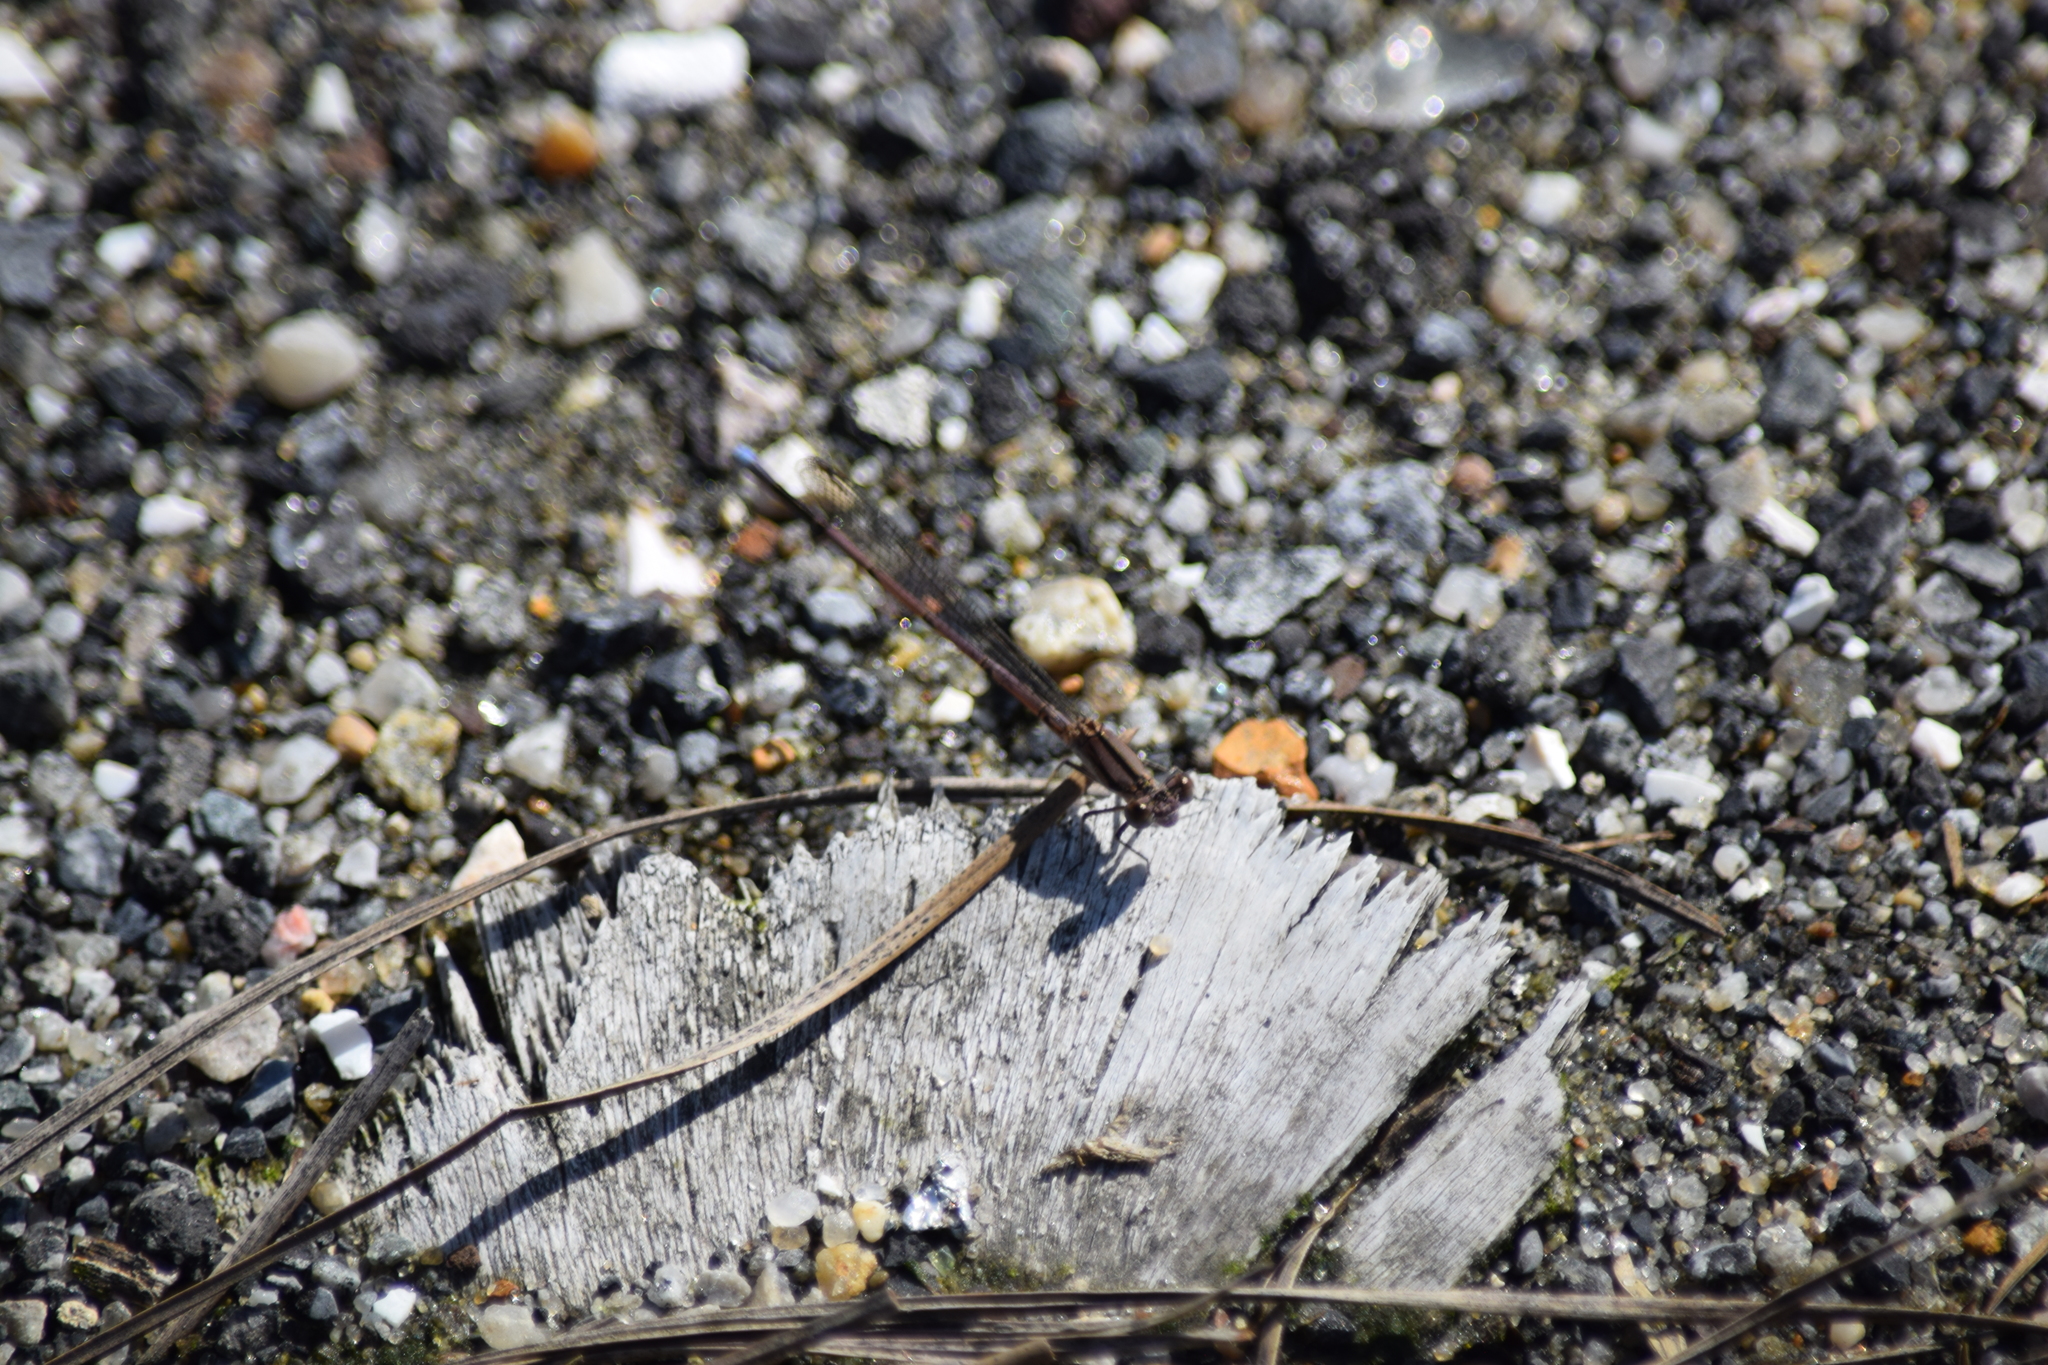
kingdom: Animalia
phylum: Arthropoda
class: Insecta
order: Odonata
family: Coenagrionidae
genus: Argia
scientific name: Argia fumipennis
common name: Variable dancer
